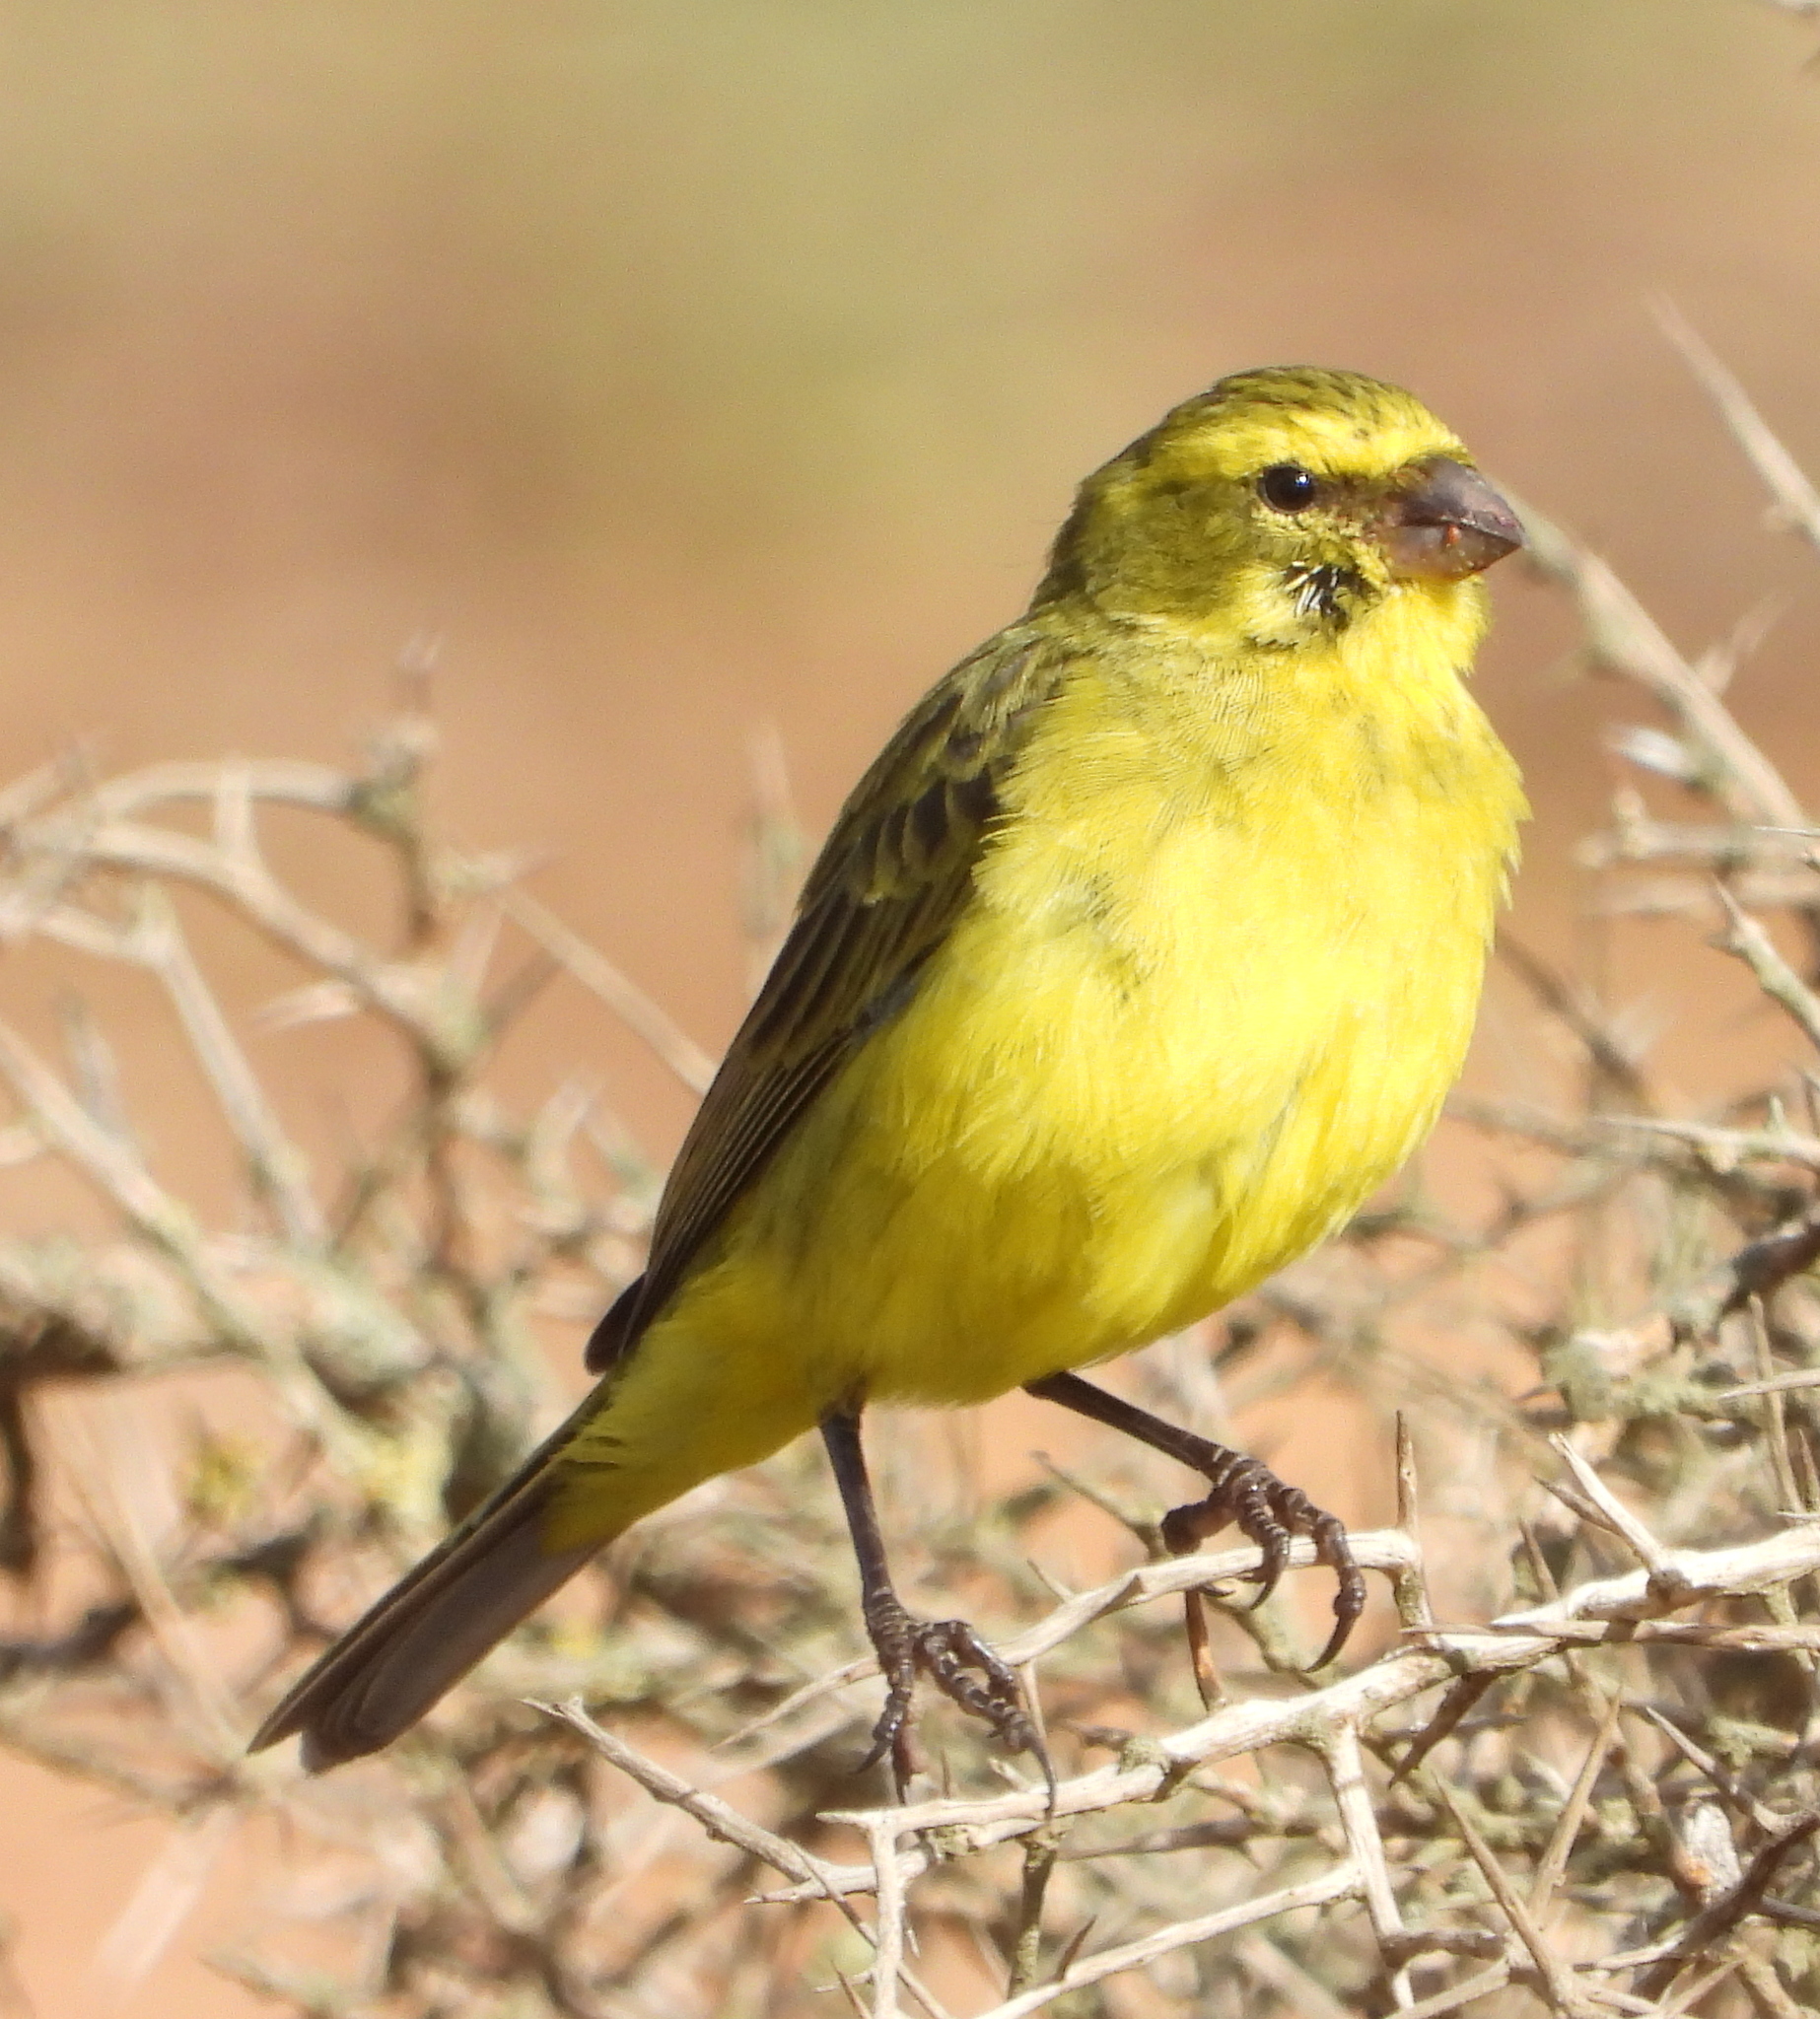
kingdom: Animalia
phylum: Chordata
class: Aves
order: Passeriformes
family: Fringillidae
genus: Crithagra
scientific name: Crithagra flaviventris
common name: Yellow canary
